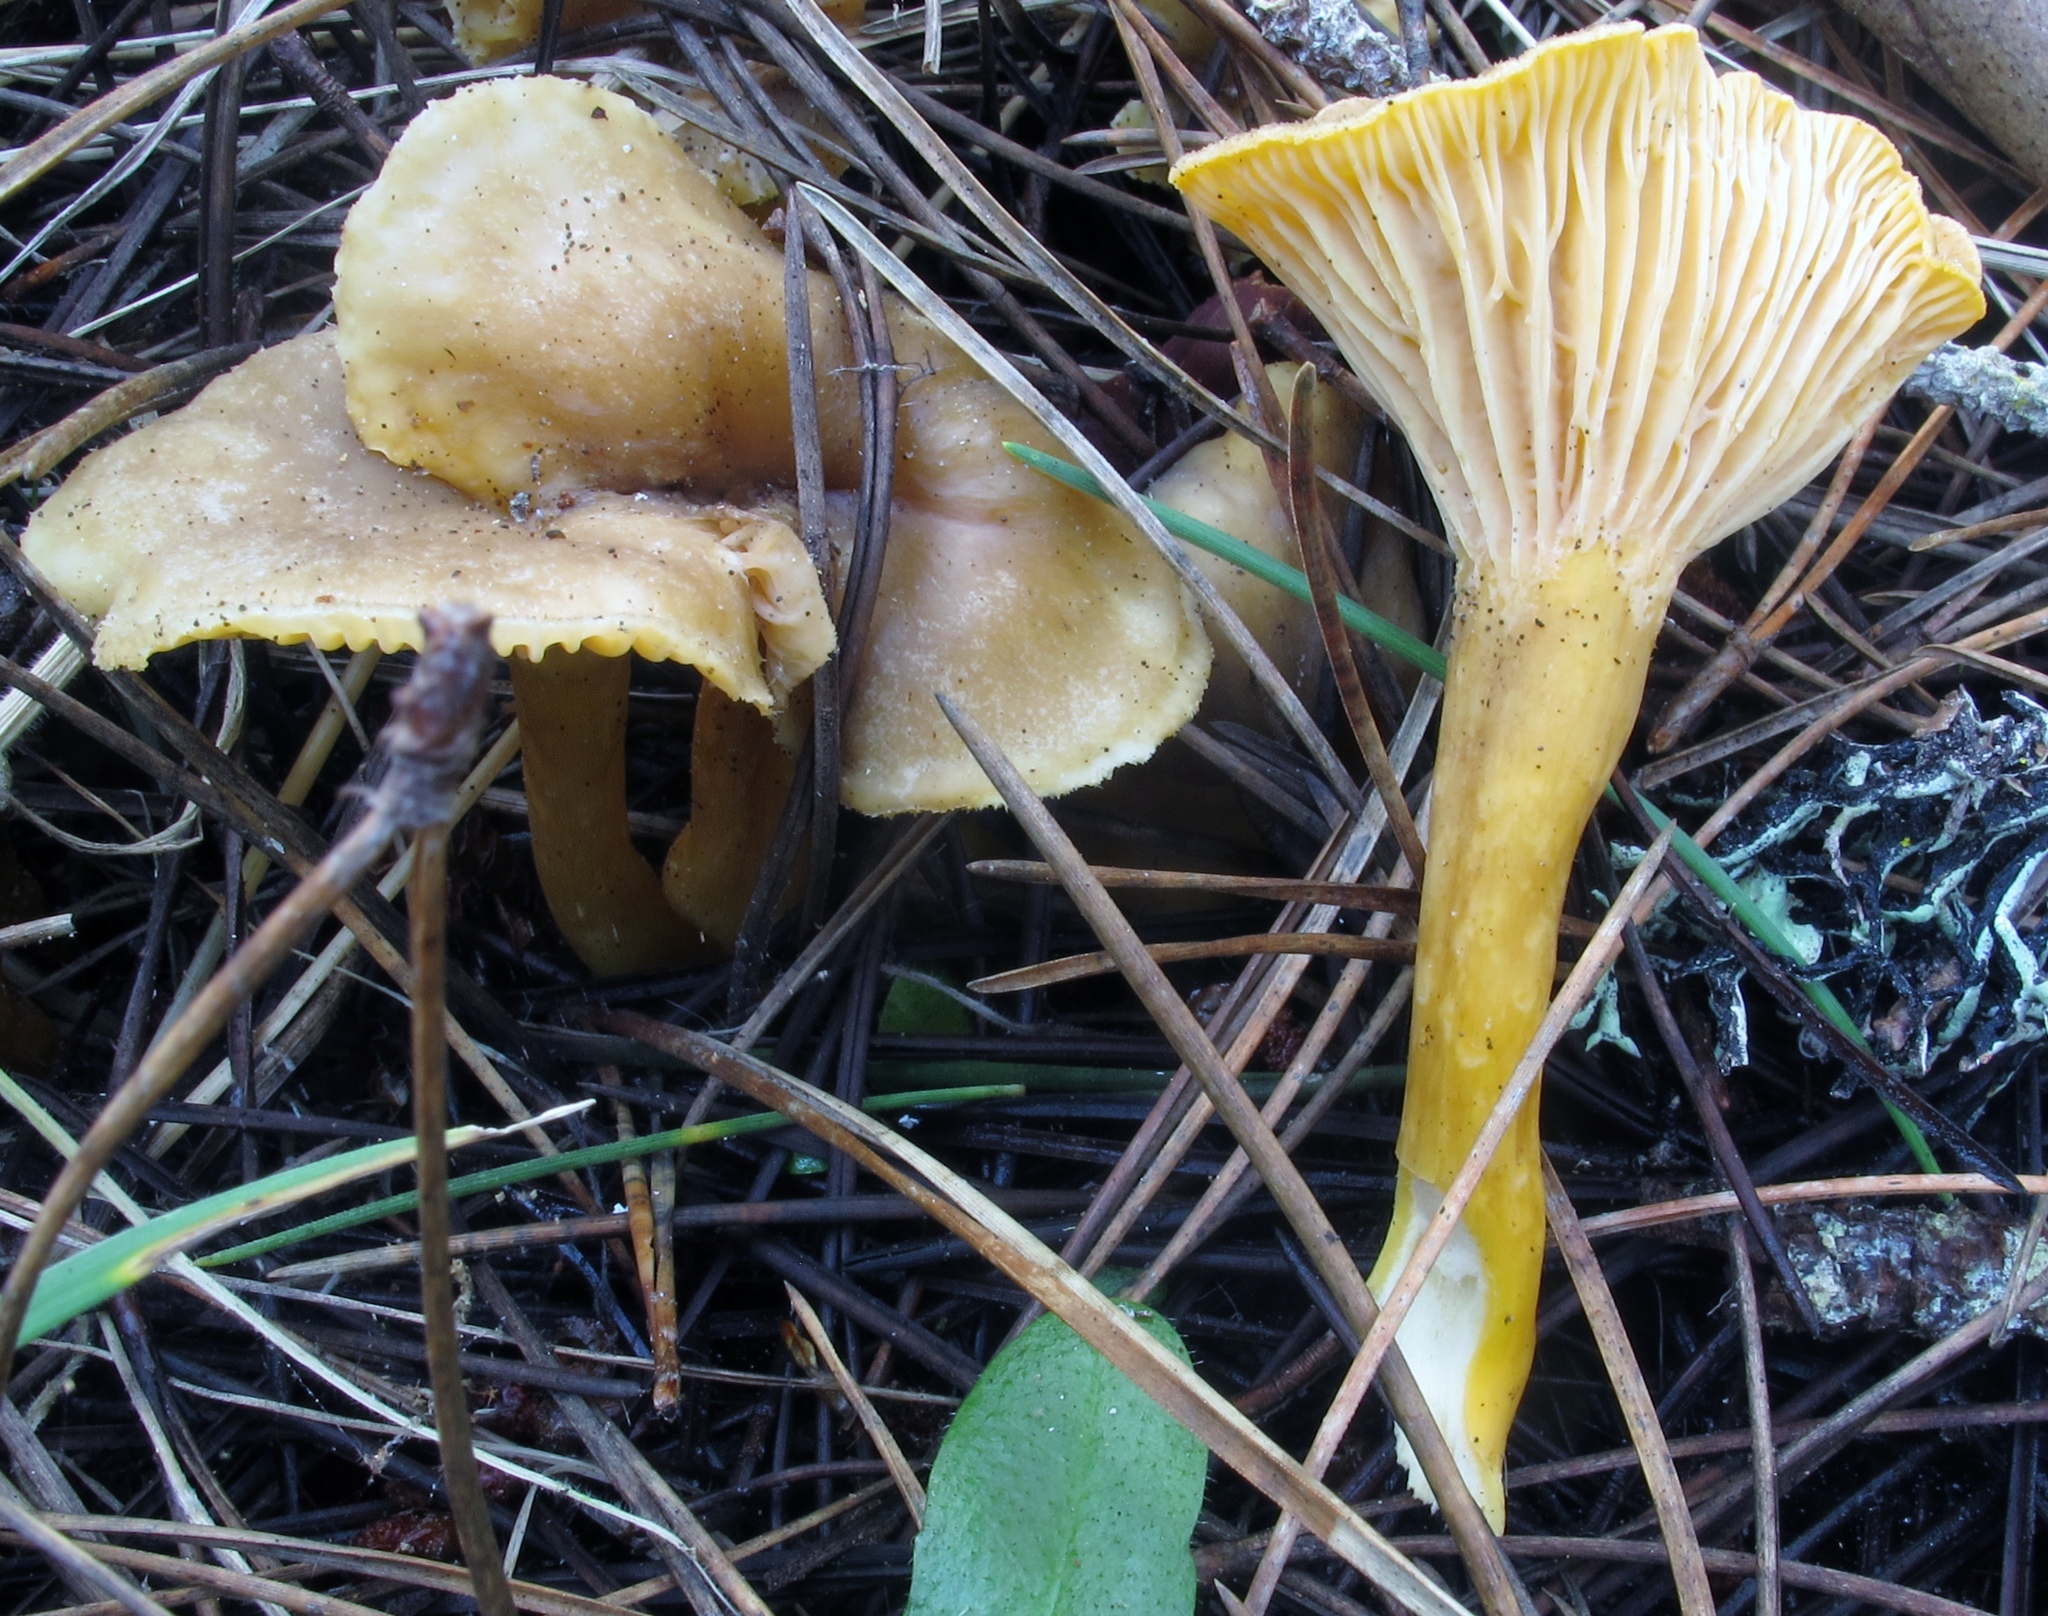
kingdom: Fungi
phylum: Basidiomycota
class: Agaricomycetes
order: Cantharellales
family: Hydnaceae
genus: Craterellus
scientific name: Craterellus tubaeformis
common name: Yellowfoot
